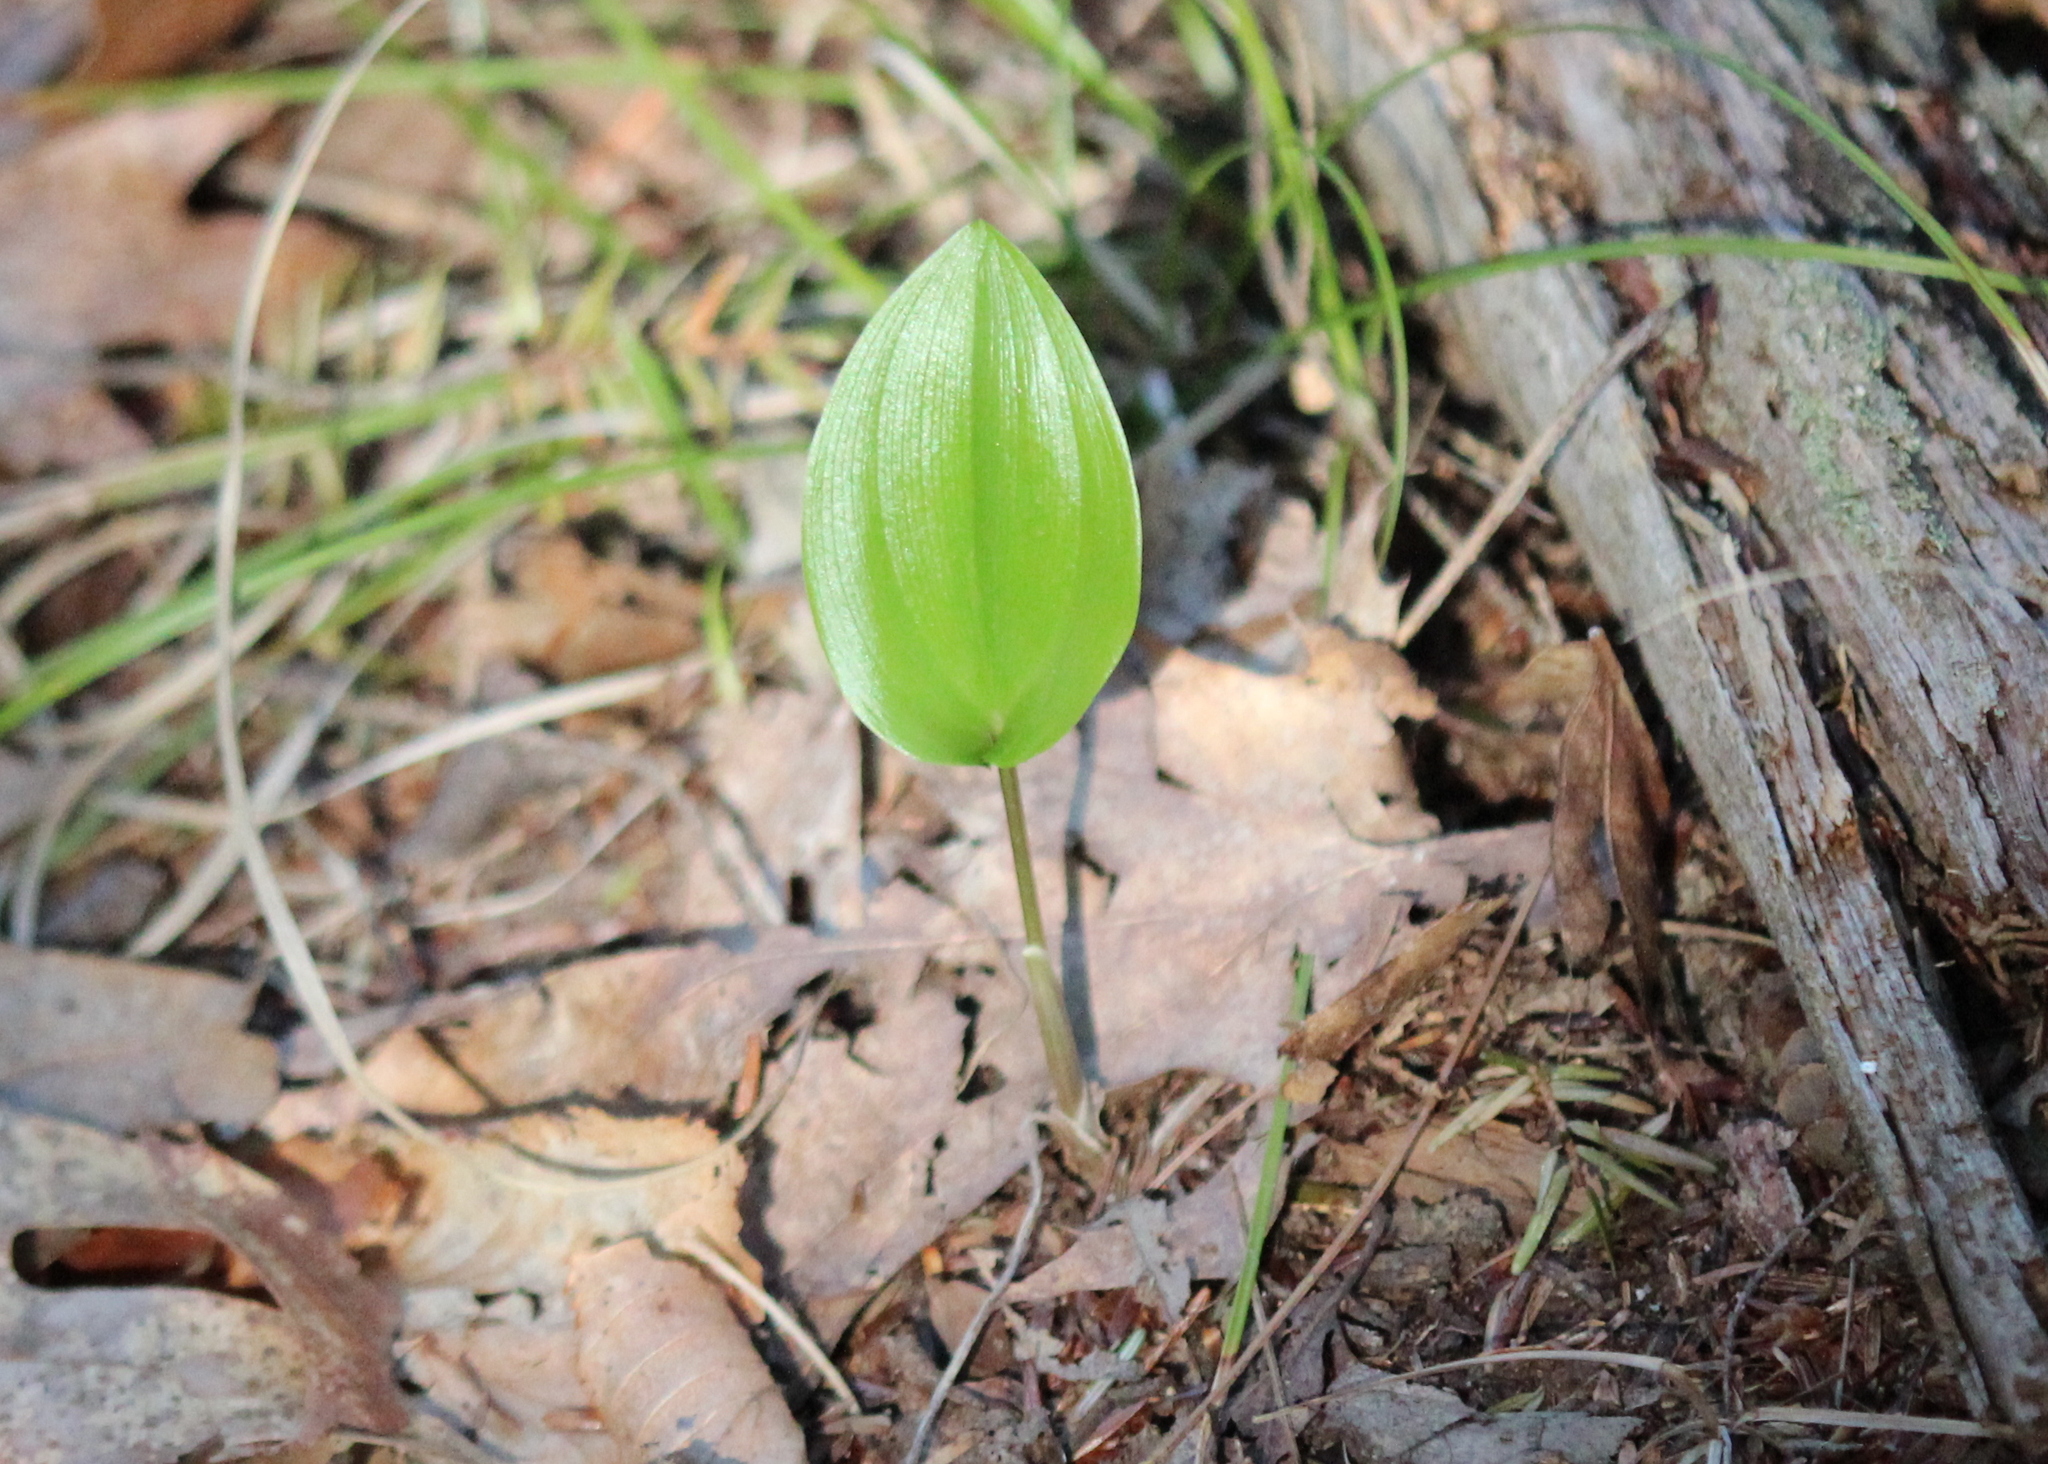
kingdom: Plantae
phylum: Tracheophyta
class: Liliopsida
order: Asparagales
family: Asparagaceae
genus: Maianthemum
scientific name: Maianthemum canadense
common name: False lily-of-the-valley
